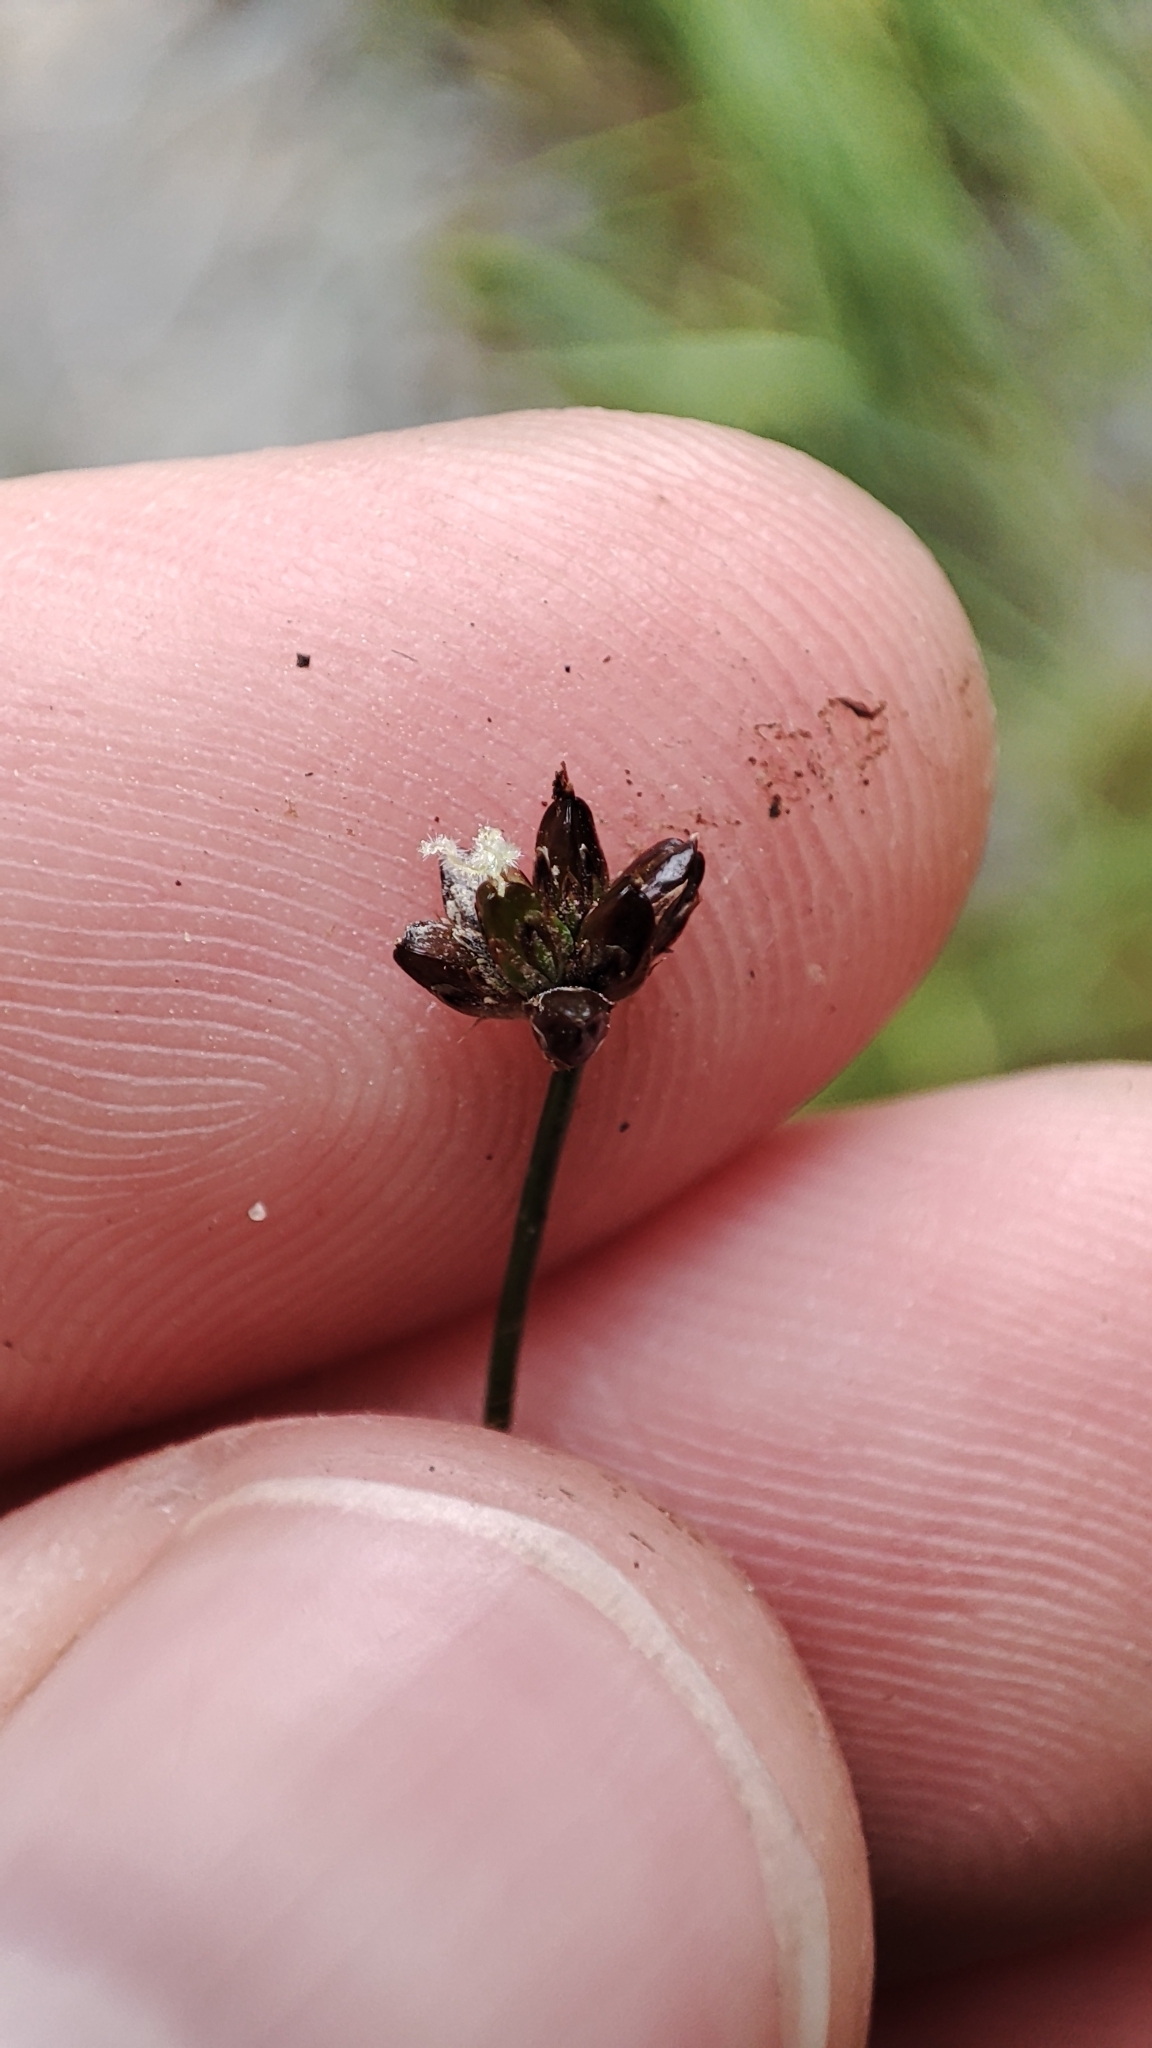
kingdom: Plantae
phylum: Tracheophyta
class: Liliopsida
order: Poales
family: Juncaceae
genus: Juncus
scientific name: Juncus alpinoarticulatus
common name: Alpine rush
